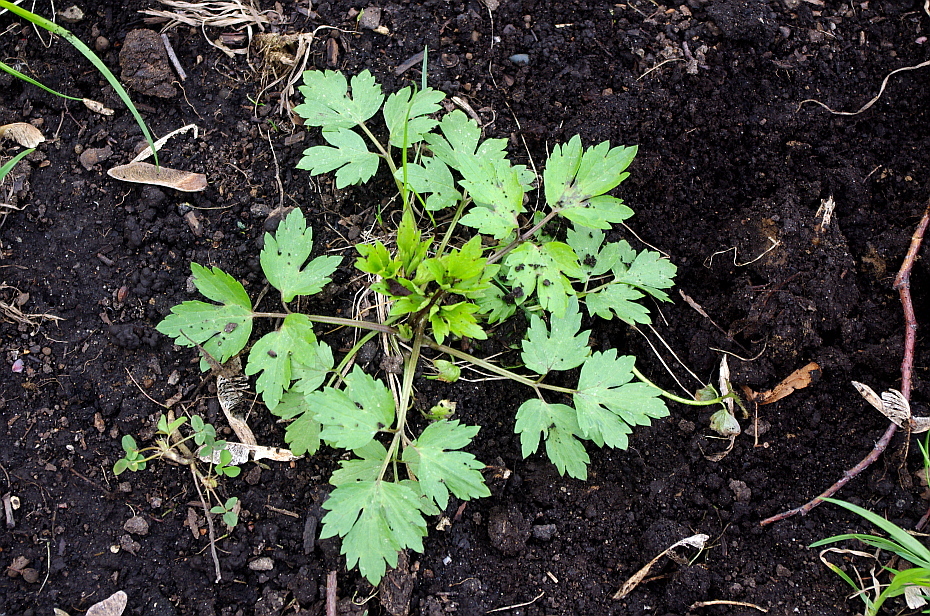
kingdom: Plantae
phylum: Tracheophyta
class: Magnoliopsida
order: Ranunculales
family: Ranunculaceae
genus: Ranunculus
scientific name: Ranunculus repens
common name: Creeping buttercup
